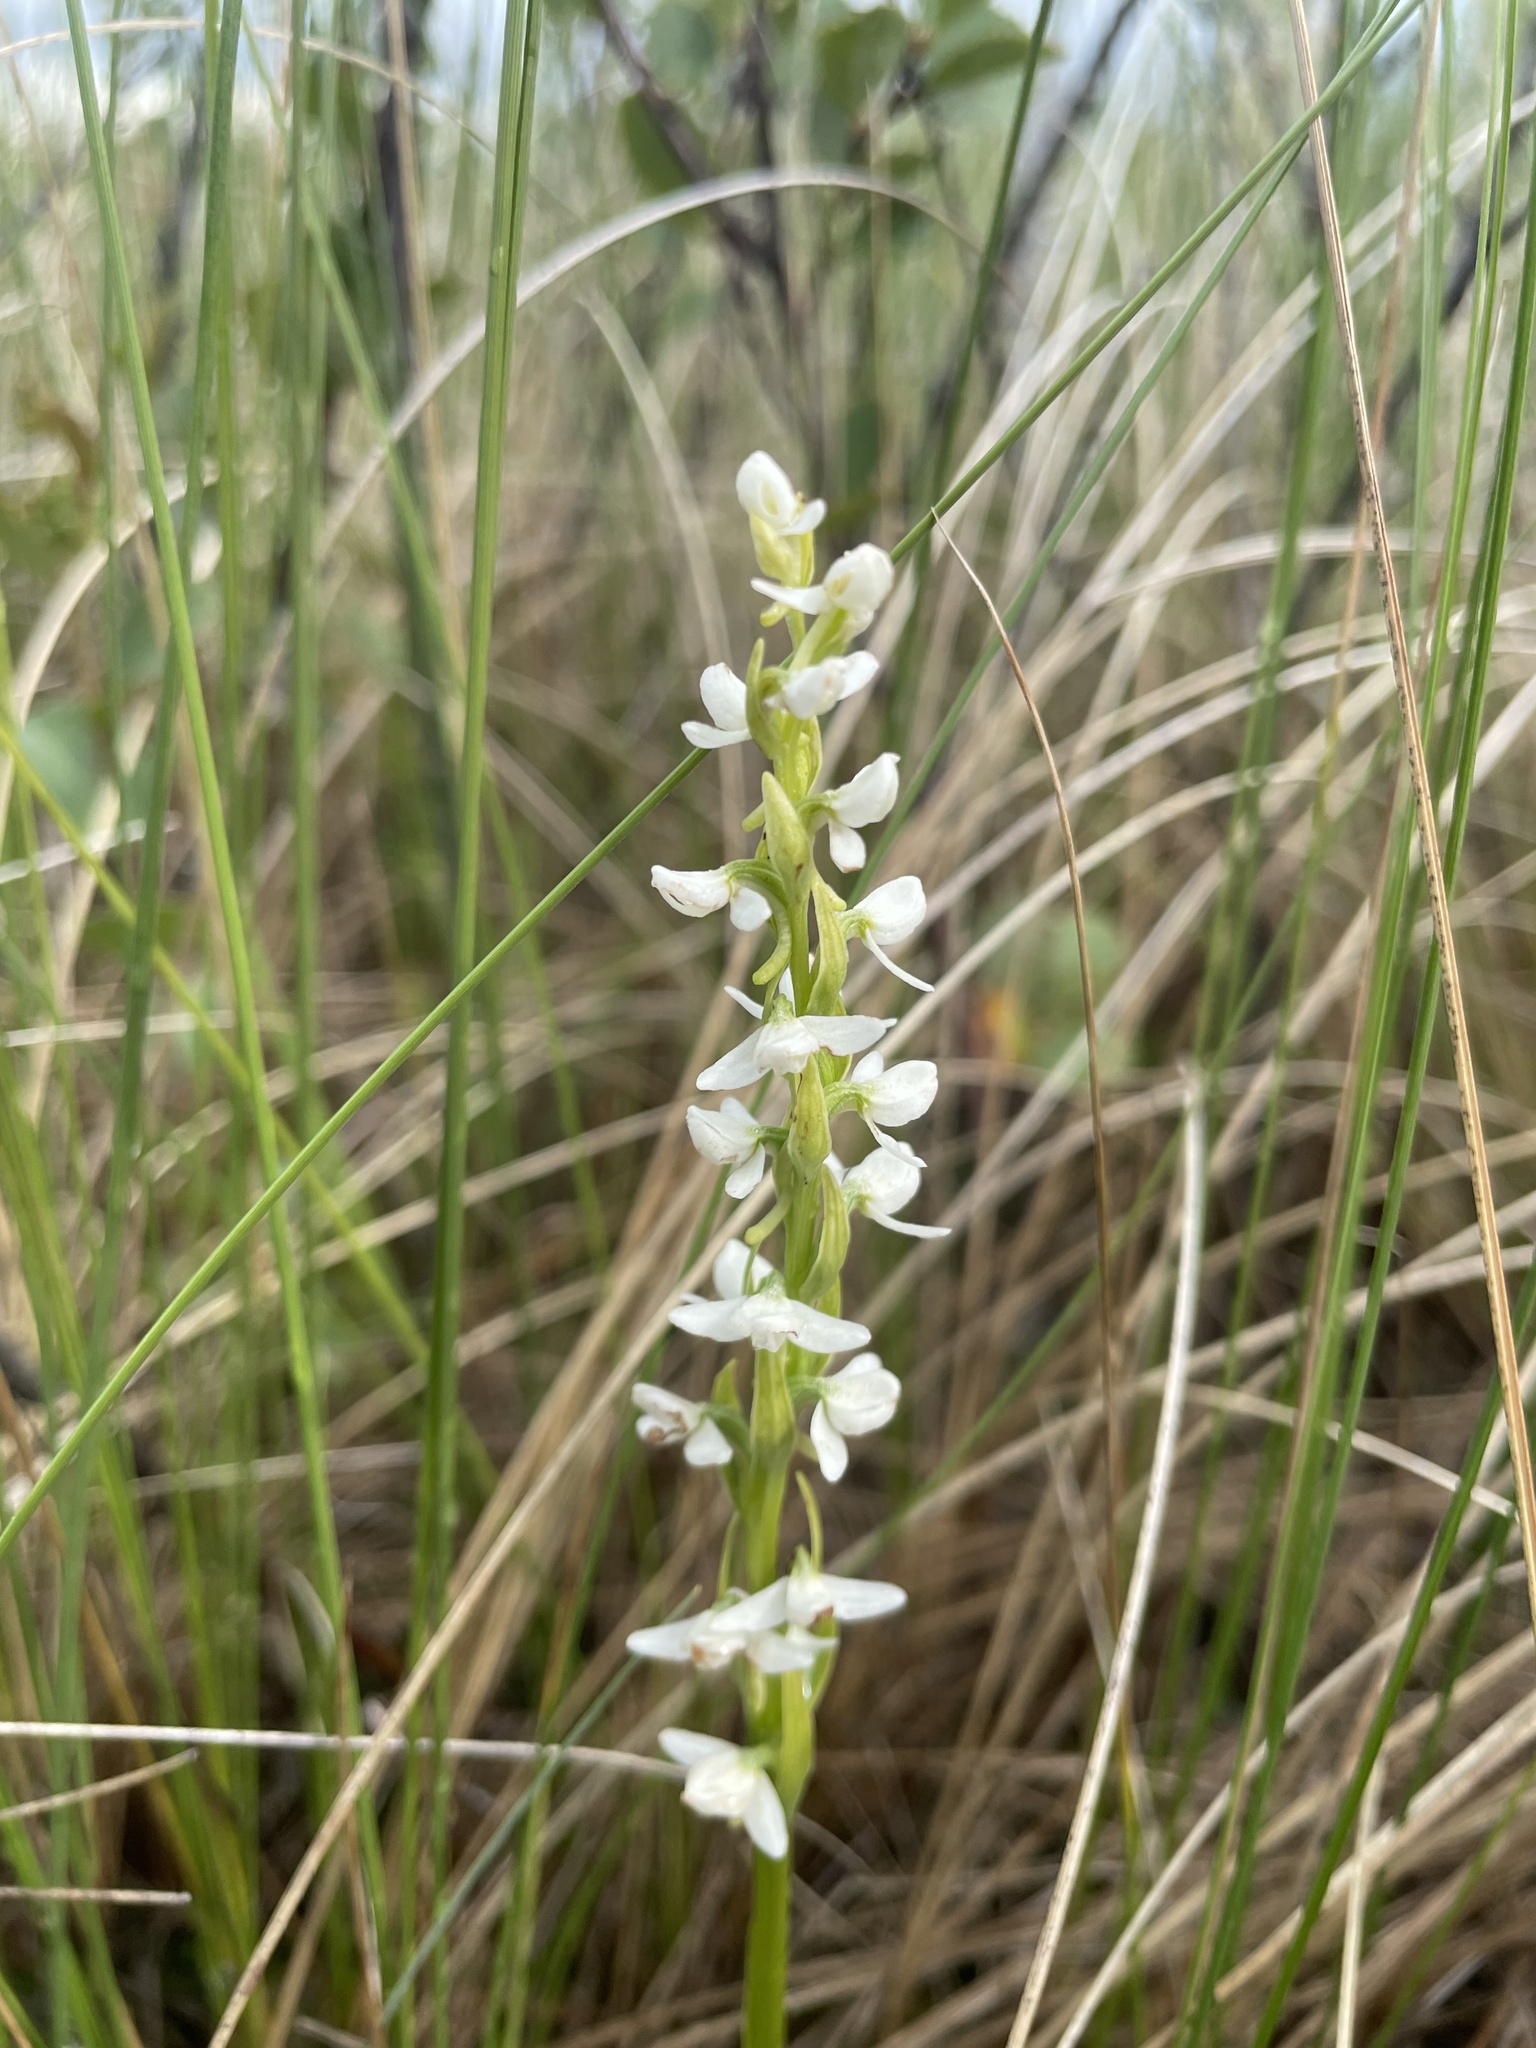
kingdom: Plantae
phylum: Tracheophyta
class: Liliopsida
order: Asparagales
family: Orchidaceae
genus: Platanthera
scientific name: Platanthera dilatata
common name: Bog candles
